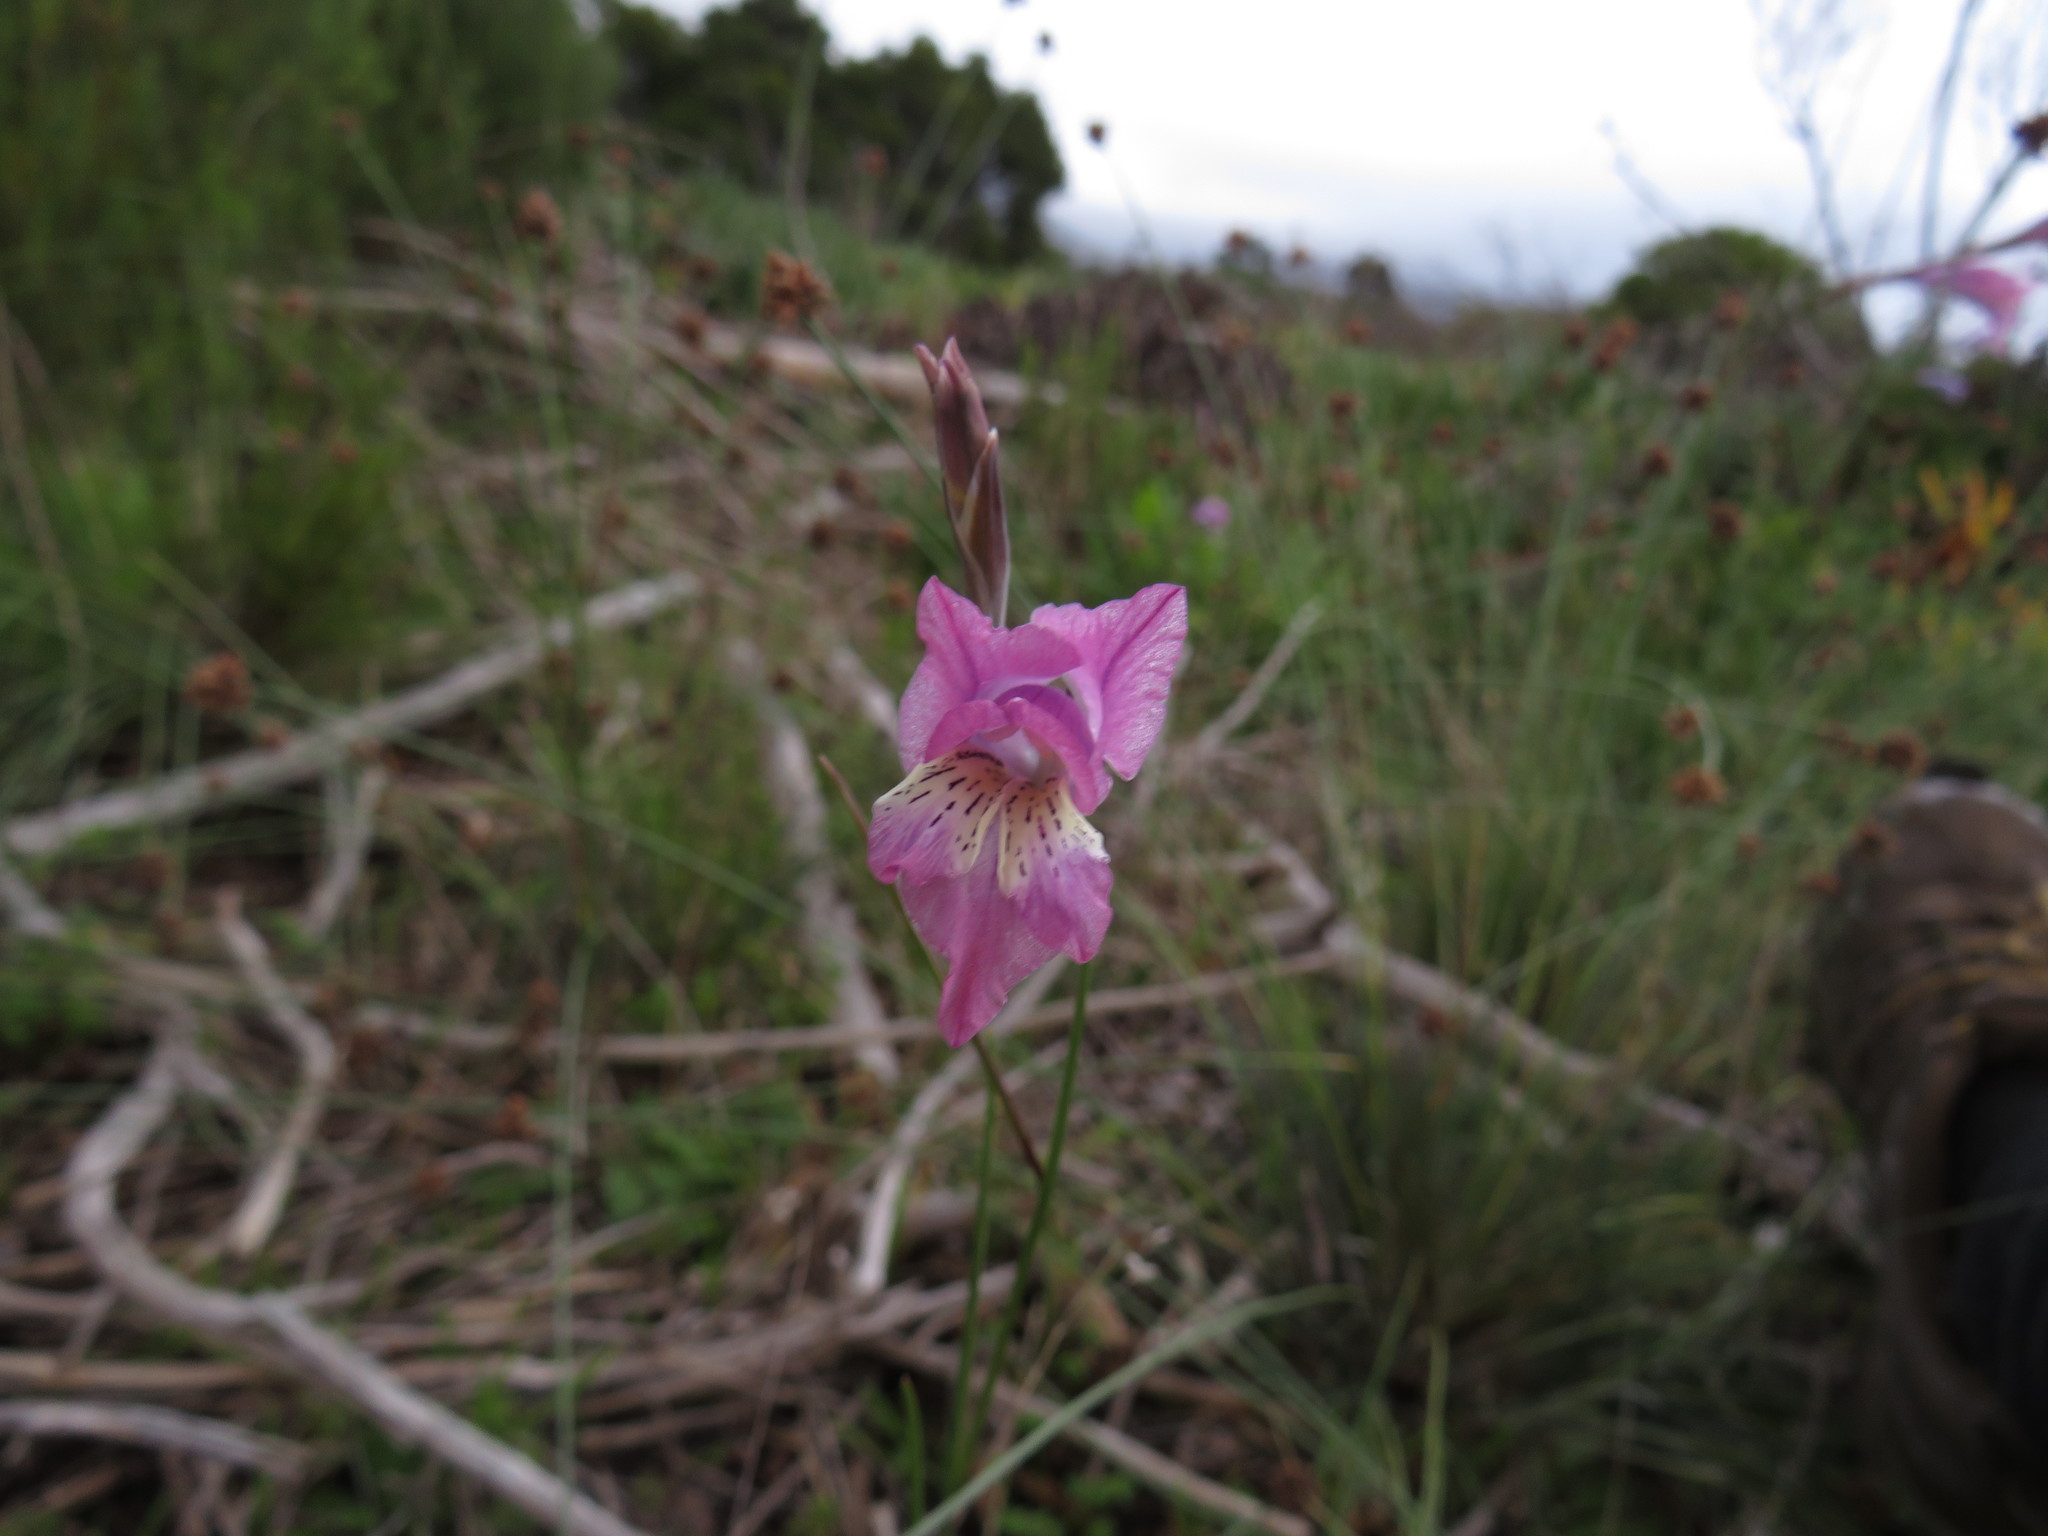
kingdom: Plantae
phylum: Tracheophyta
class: Liliopsida
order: Asparagales
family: Iridaceae
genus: Gladiolus
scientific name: Gladiolus gracilis
